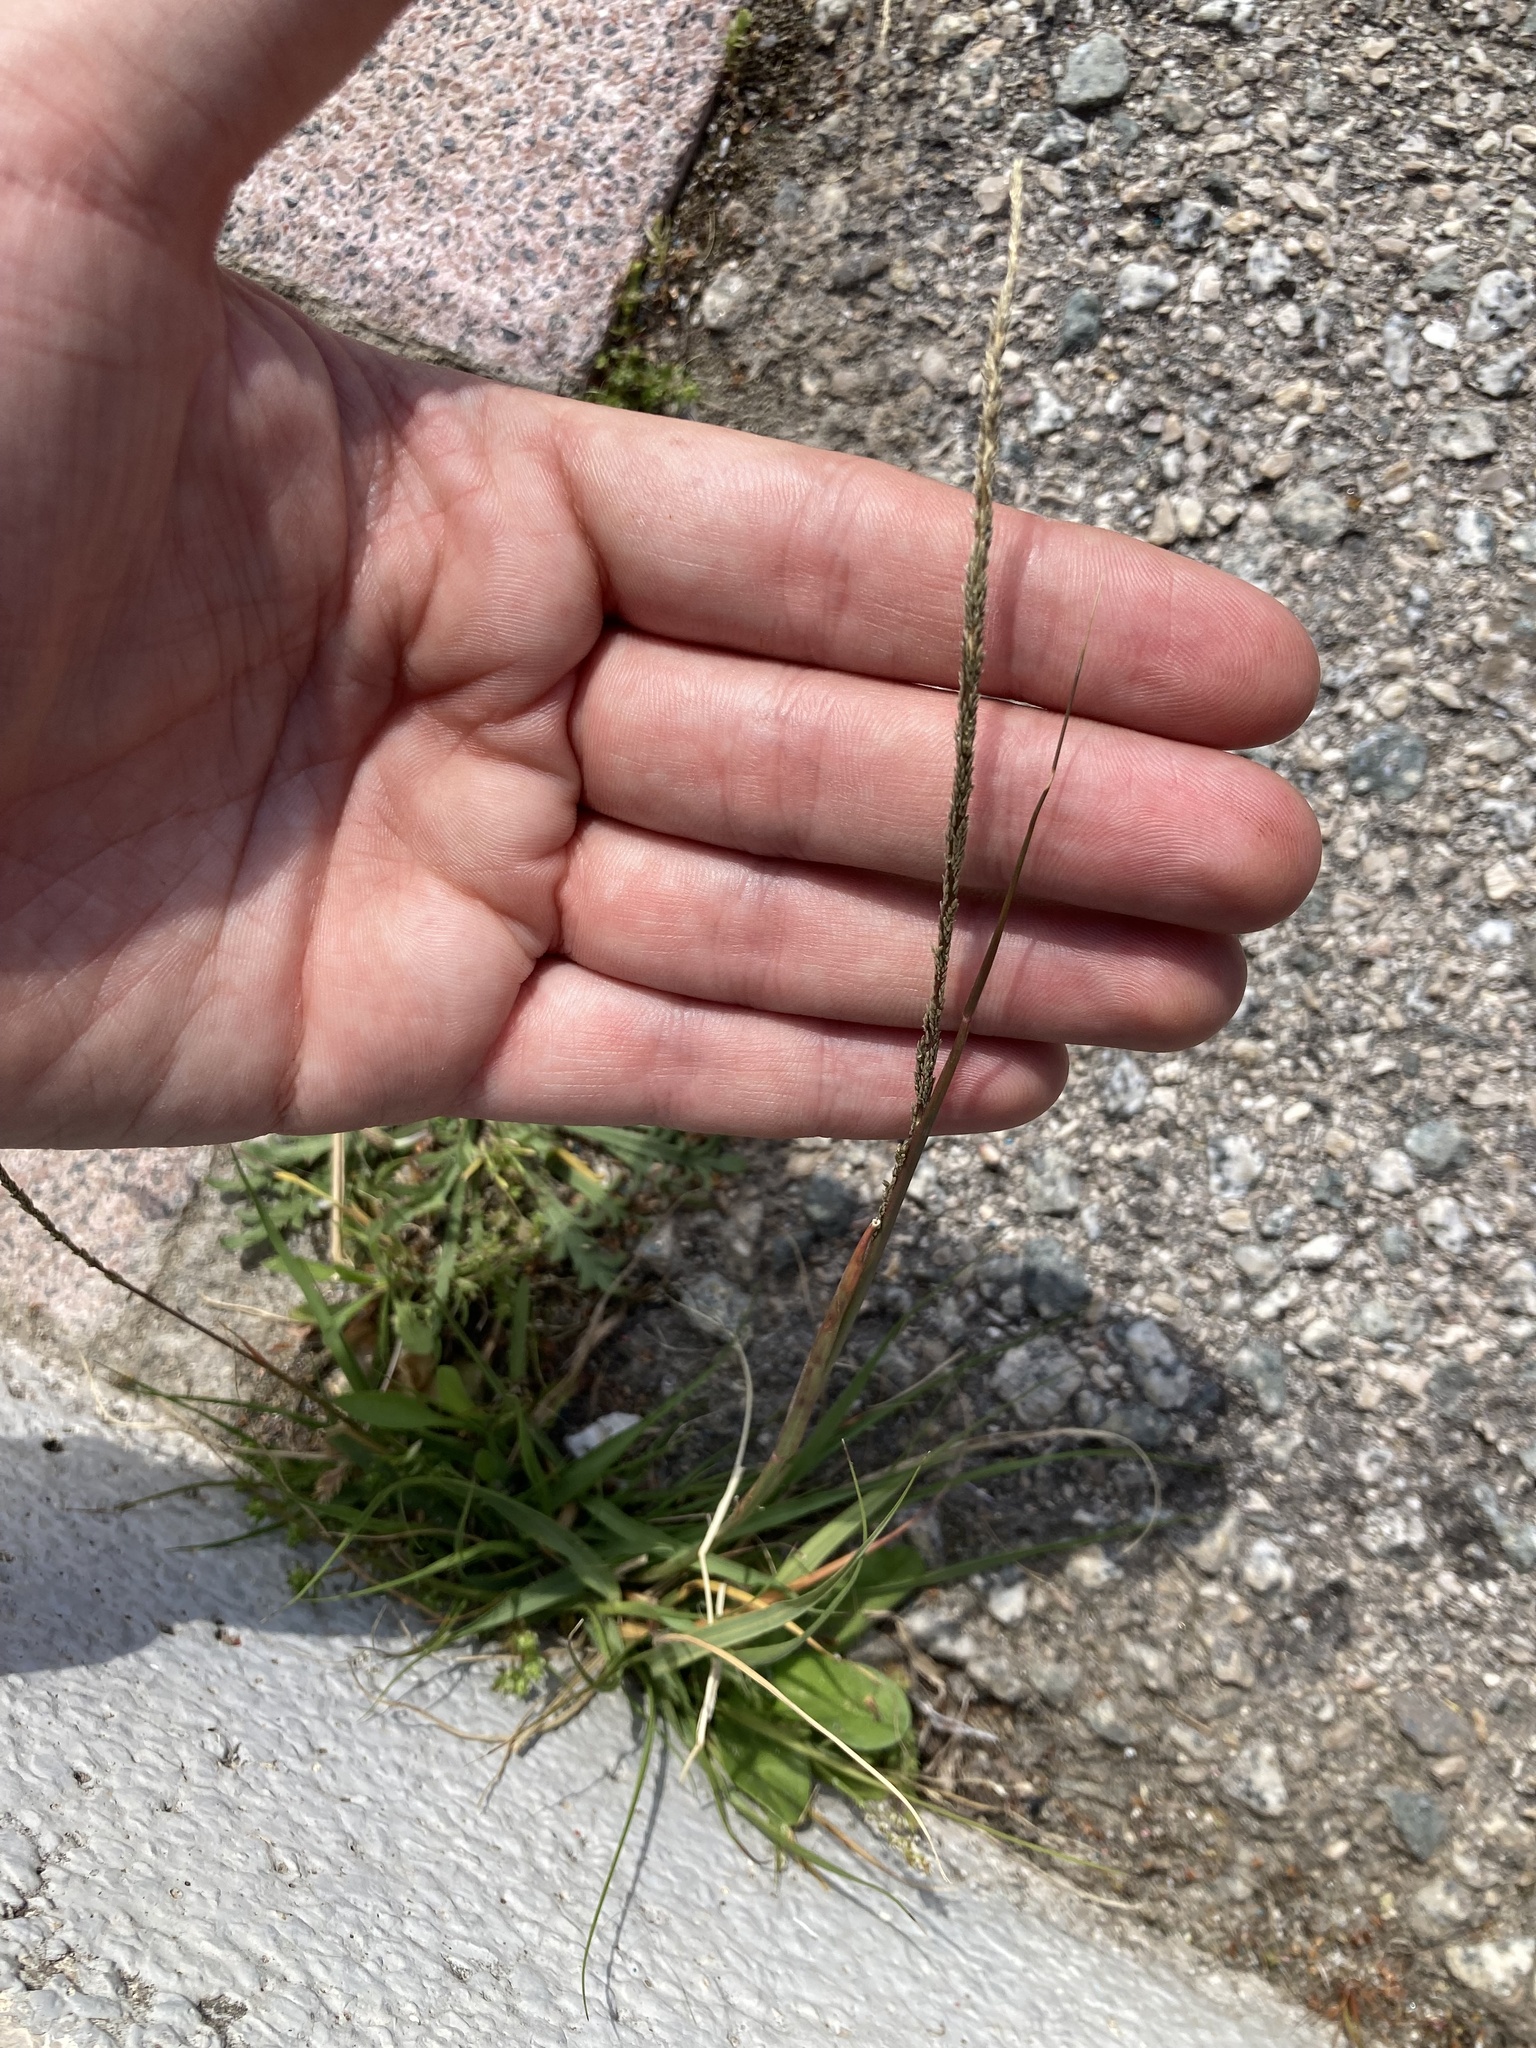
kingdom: Plantae
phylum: Tracheophyta
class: Liliopsida
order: Poales
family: Poaceae
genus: Sporobolus
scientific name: Sporobolus indicus
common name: Smut grass
